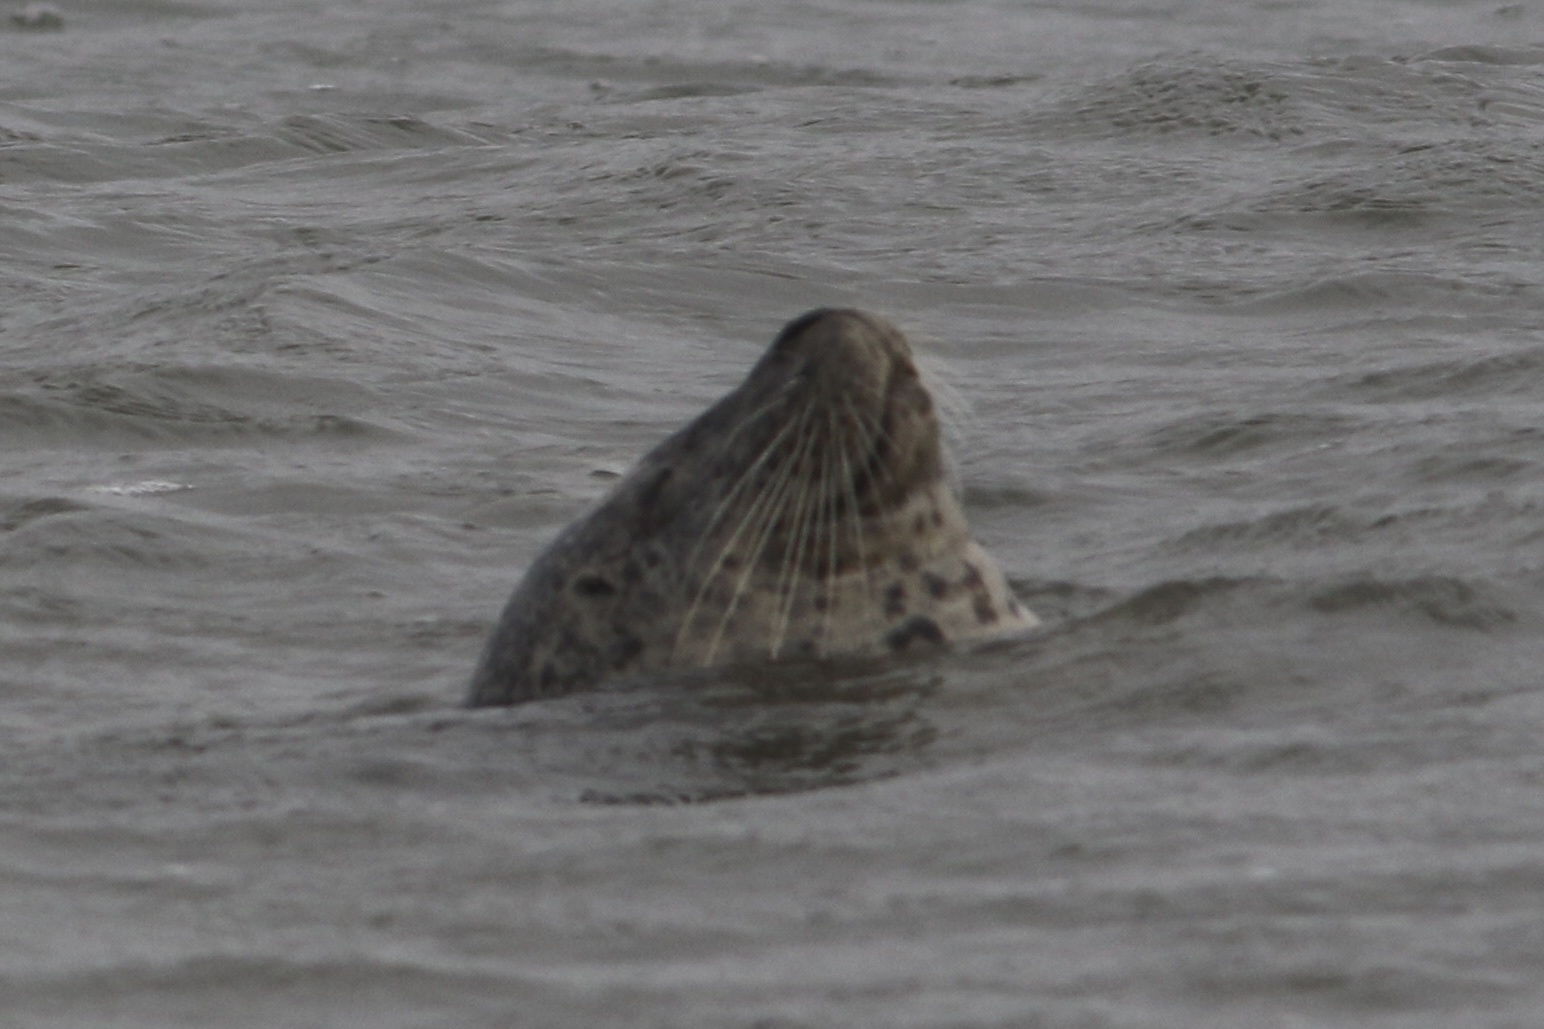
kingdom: Animalia
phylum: Chordata
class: Mammalia
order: Carnivora
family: Phocidae
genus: Phoca
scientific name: Phoca vitulina
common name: Harbor seal
